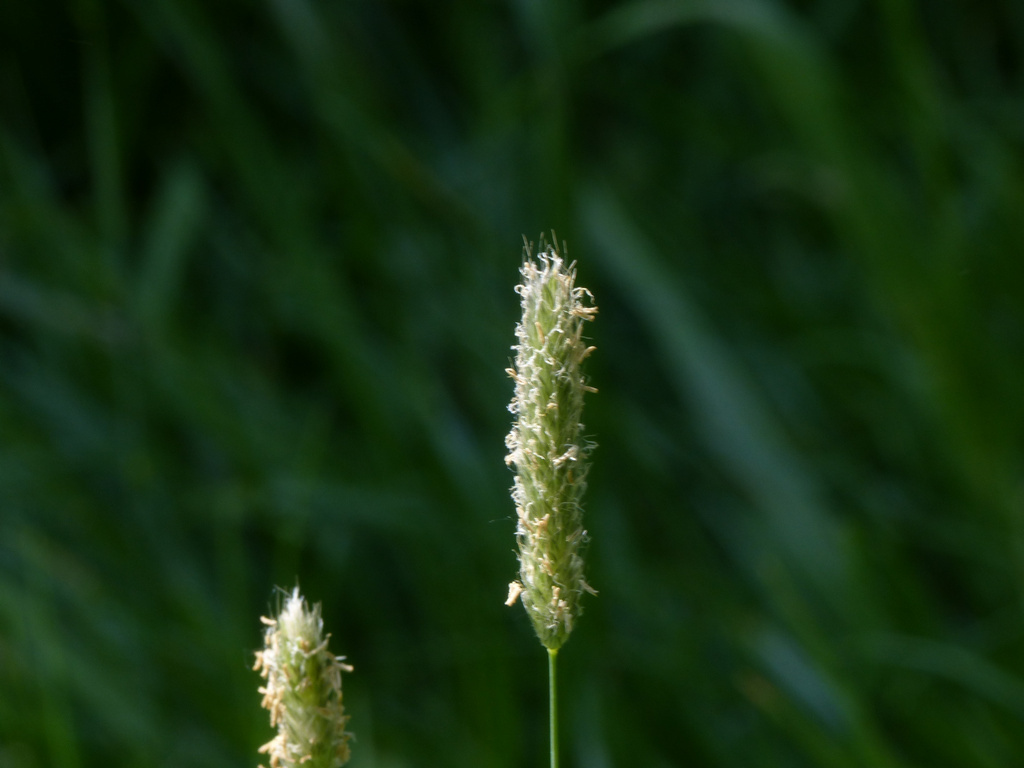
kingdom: Plantae
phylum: Tracheophyta
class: Liliopsida
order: Poales
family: Poaceae
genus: Alopecurus
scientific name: Alopecurus pratensis
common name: Meadow foxtail
